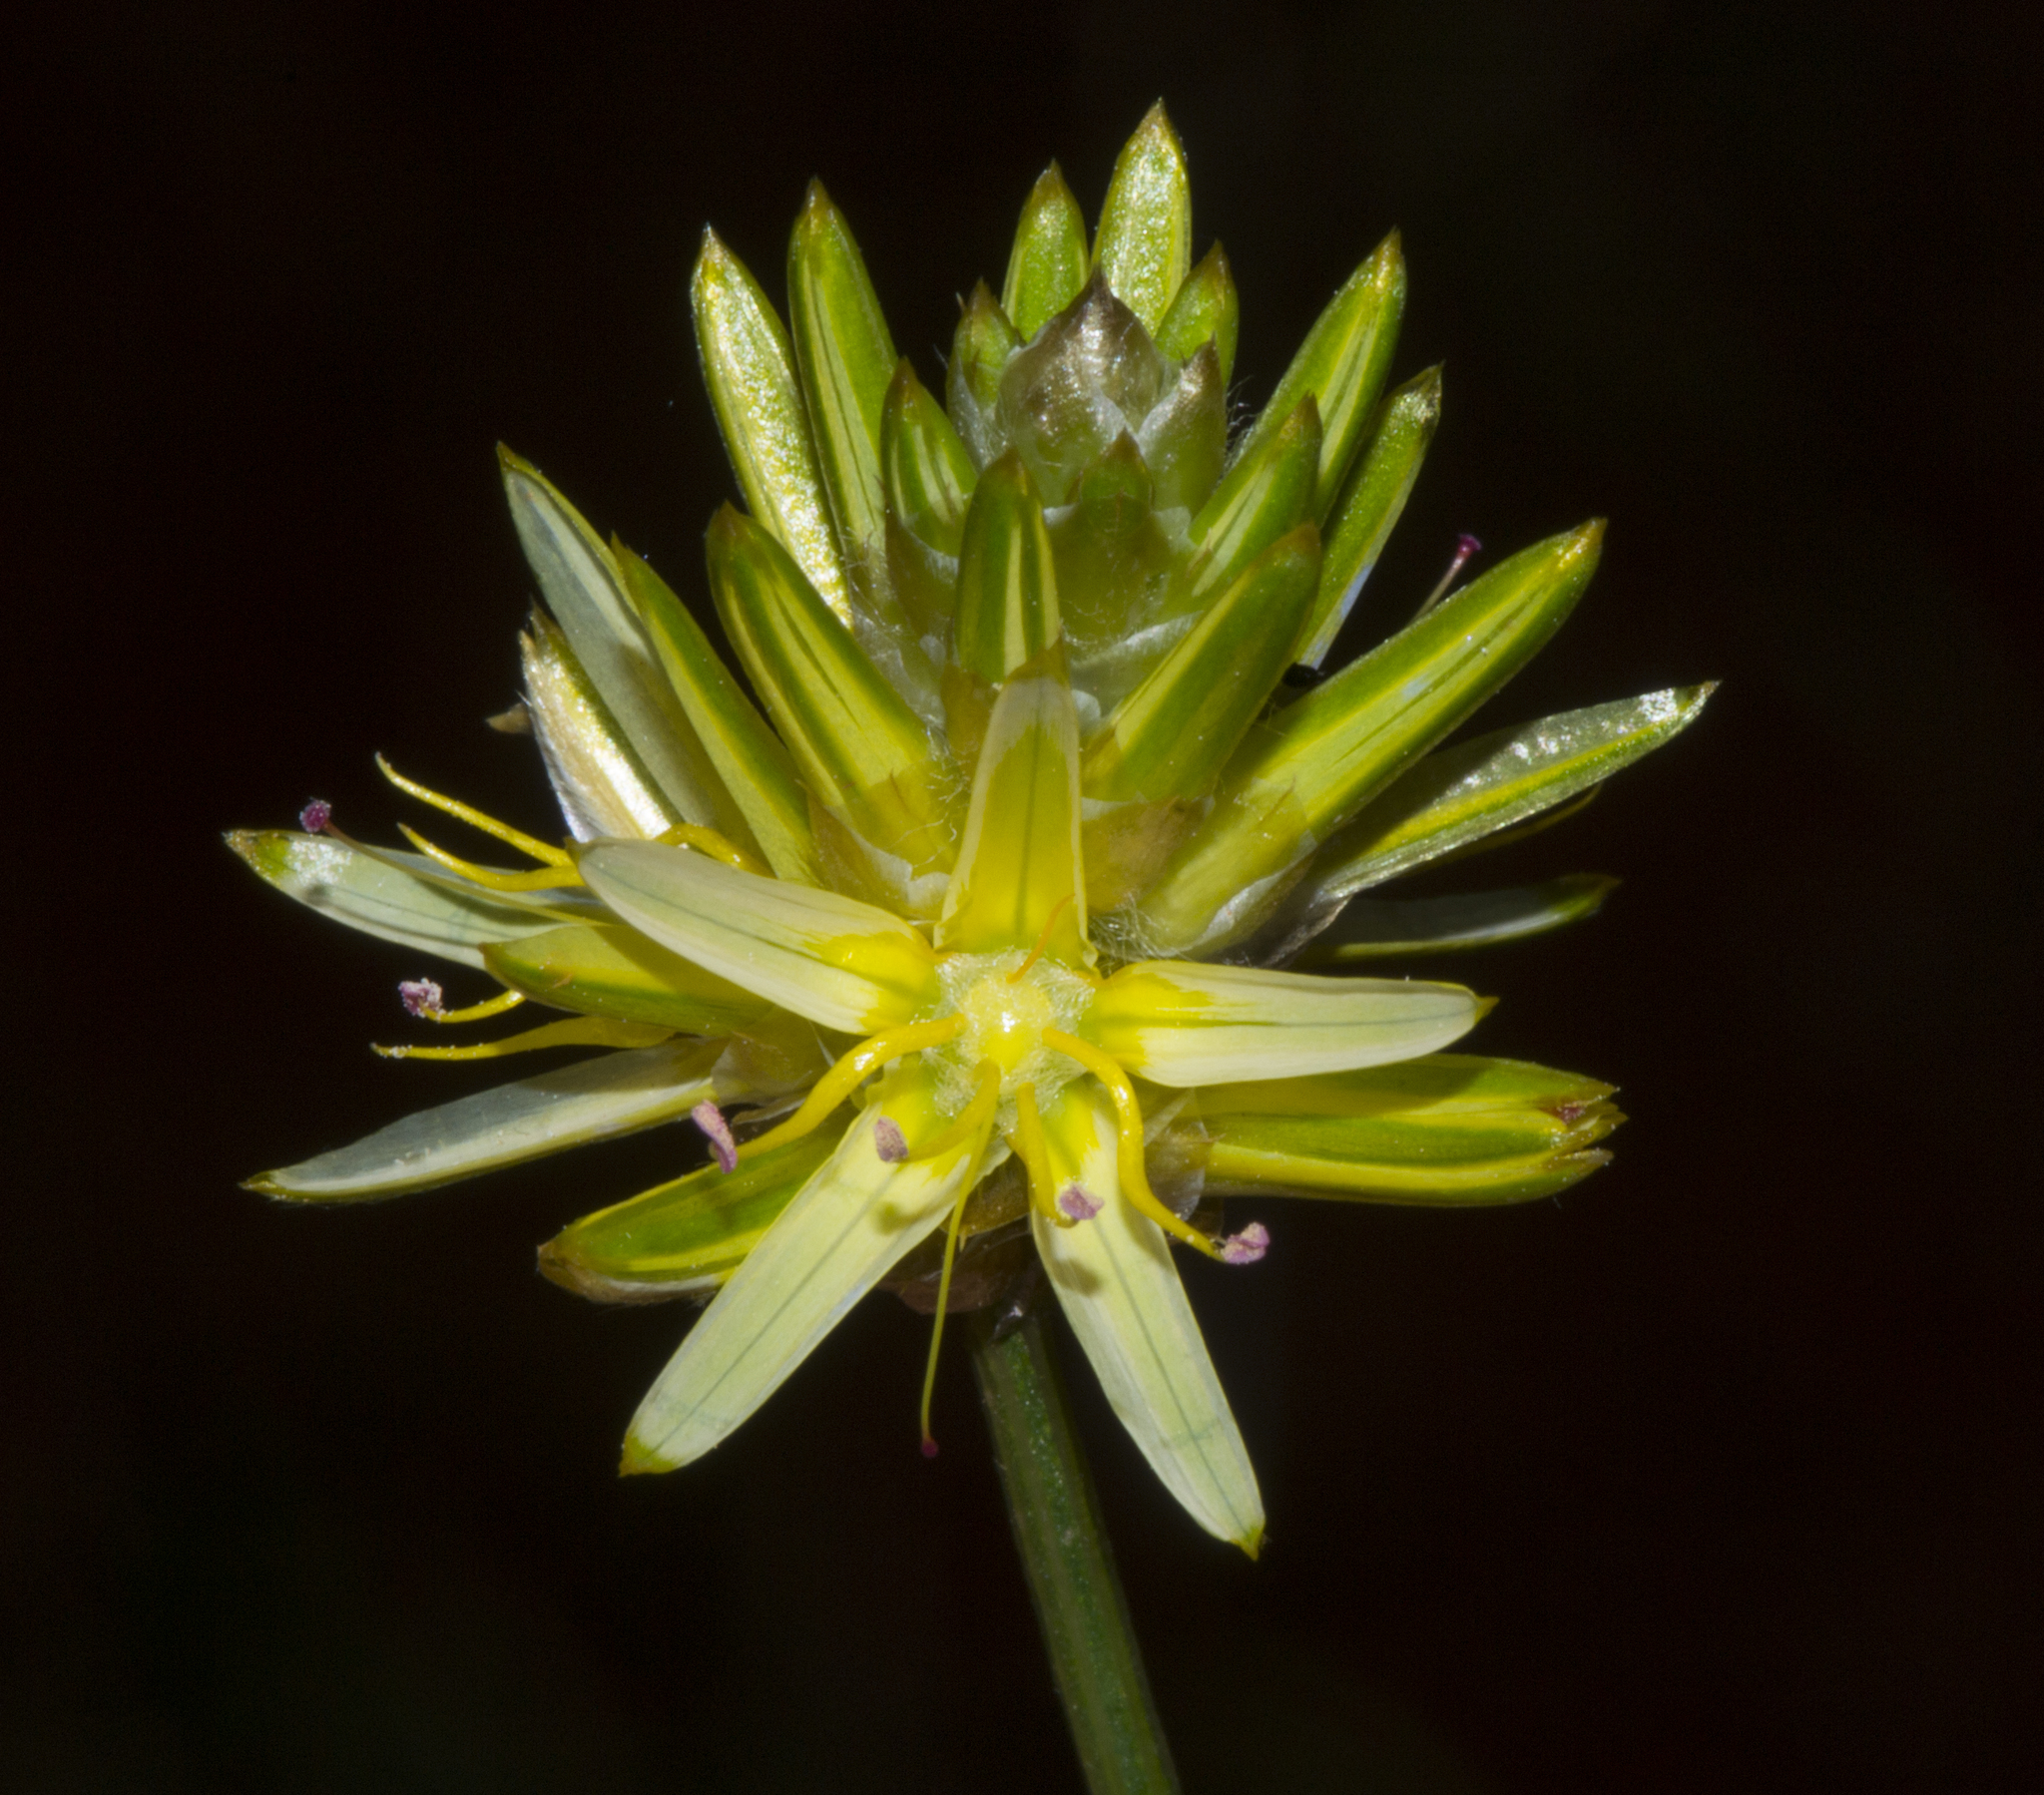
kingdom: Plantae
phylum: Tracheophyta
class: Magnoliopsida
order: Caryophyllales
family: Amaranthaceae
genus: Ptilotus
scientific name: Ptilotus gaudichaudii
